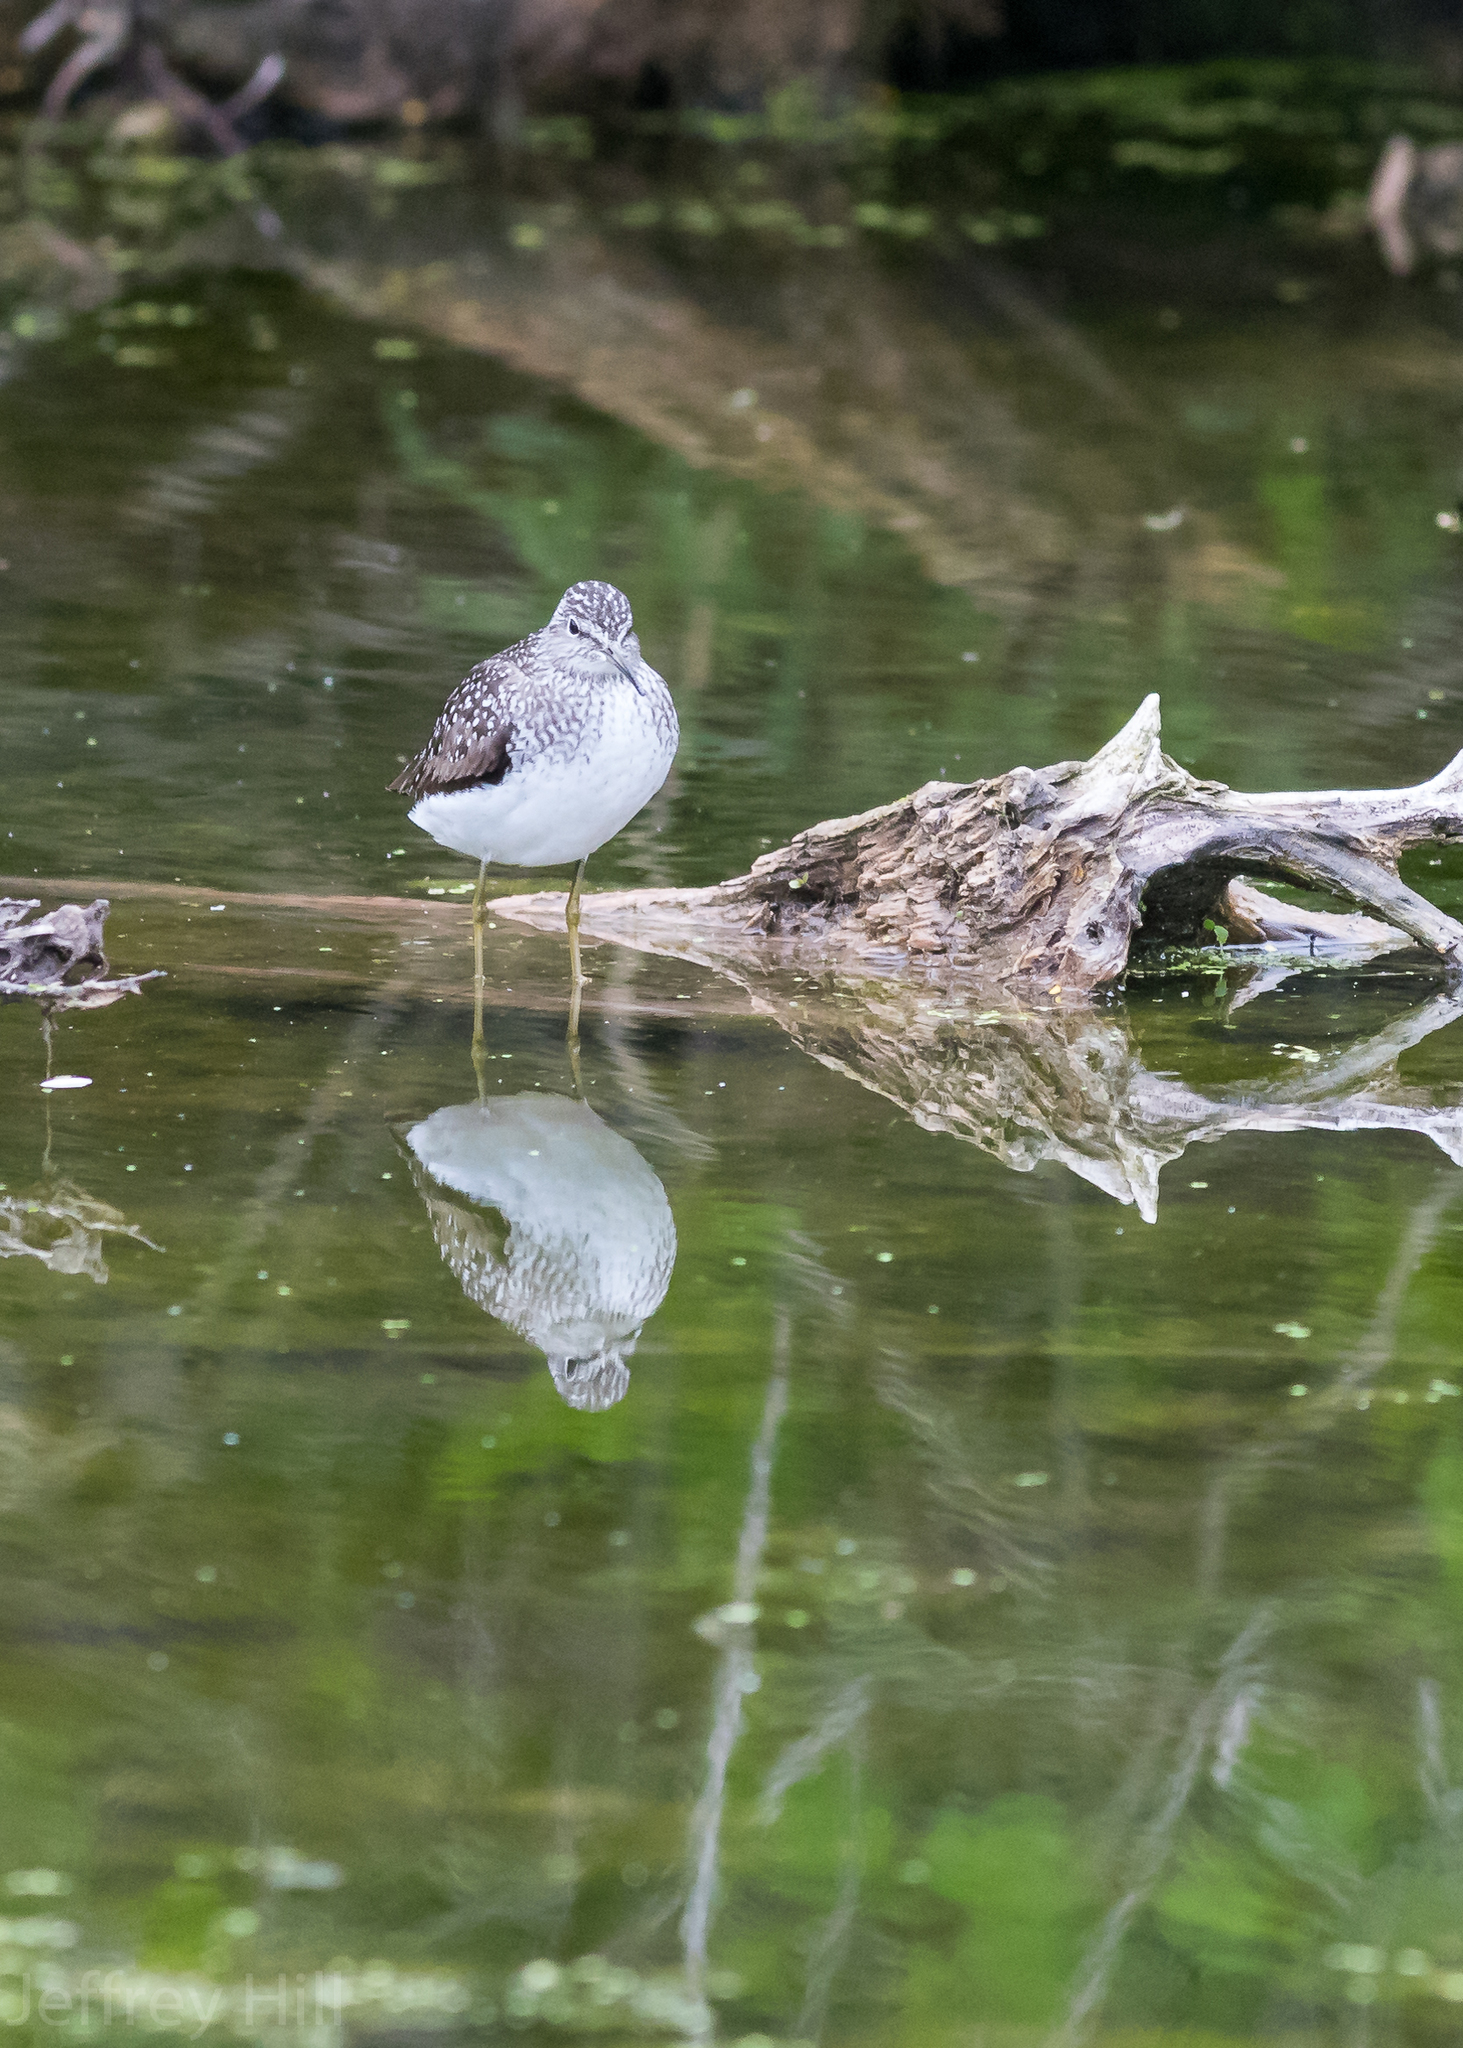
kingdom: Animalia
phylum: Chordata
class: Aves
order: Charadriiformes
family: Scolopacidae
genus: Tringa
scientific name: Tringa solitaria
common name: Solitary sandpiper
